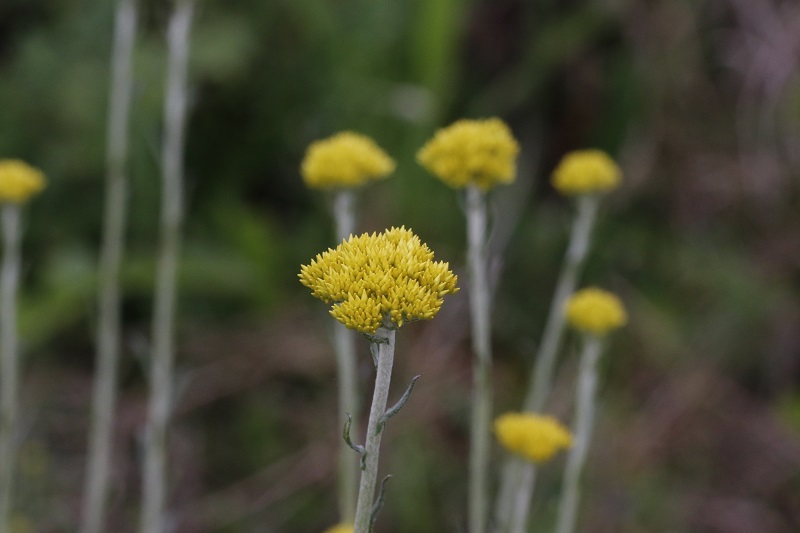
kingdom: Plantae
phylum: Tracheophyta
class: Magnoliopsida
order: Asterales
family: Asteraceae
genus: Helichrysum
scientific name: Helichrysum cymosum
